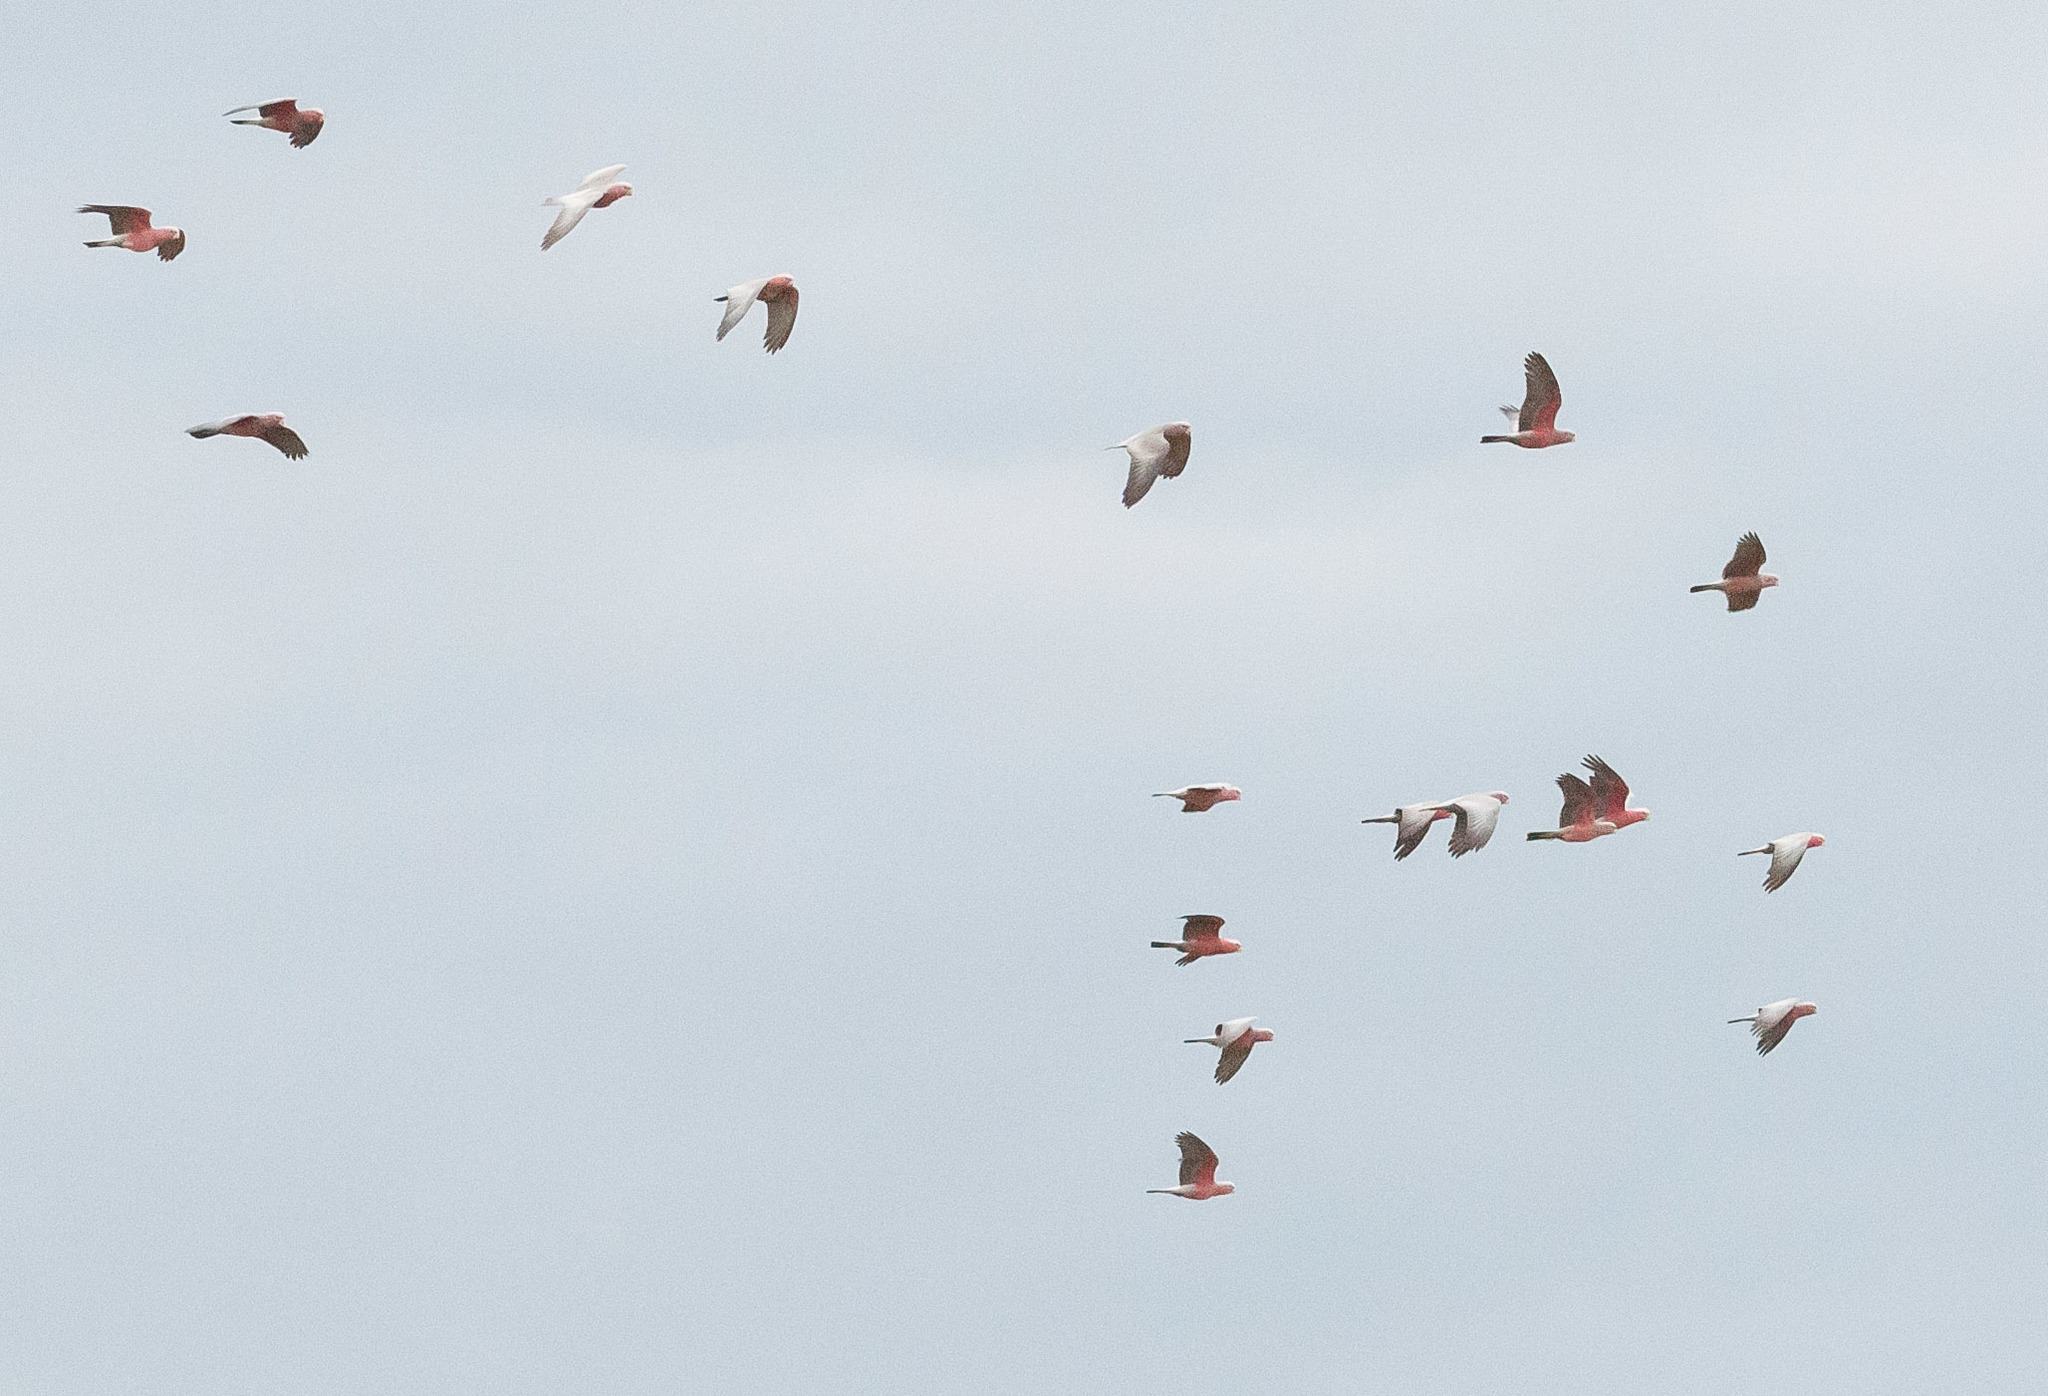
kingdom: Animalia
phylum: Chordata
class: Aves
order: Psittaciformes
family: Psittacidae
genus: Eolophus
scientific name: Eolophus roseicapilla
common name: Galah
